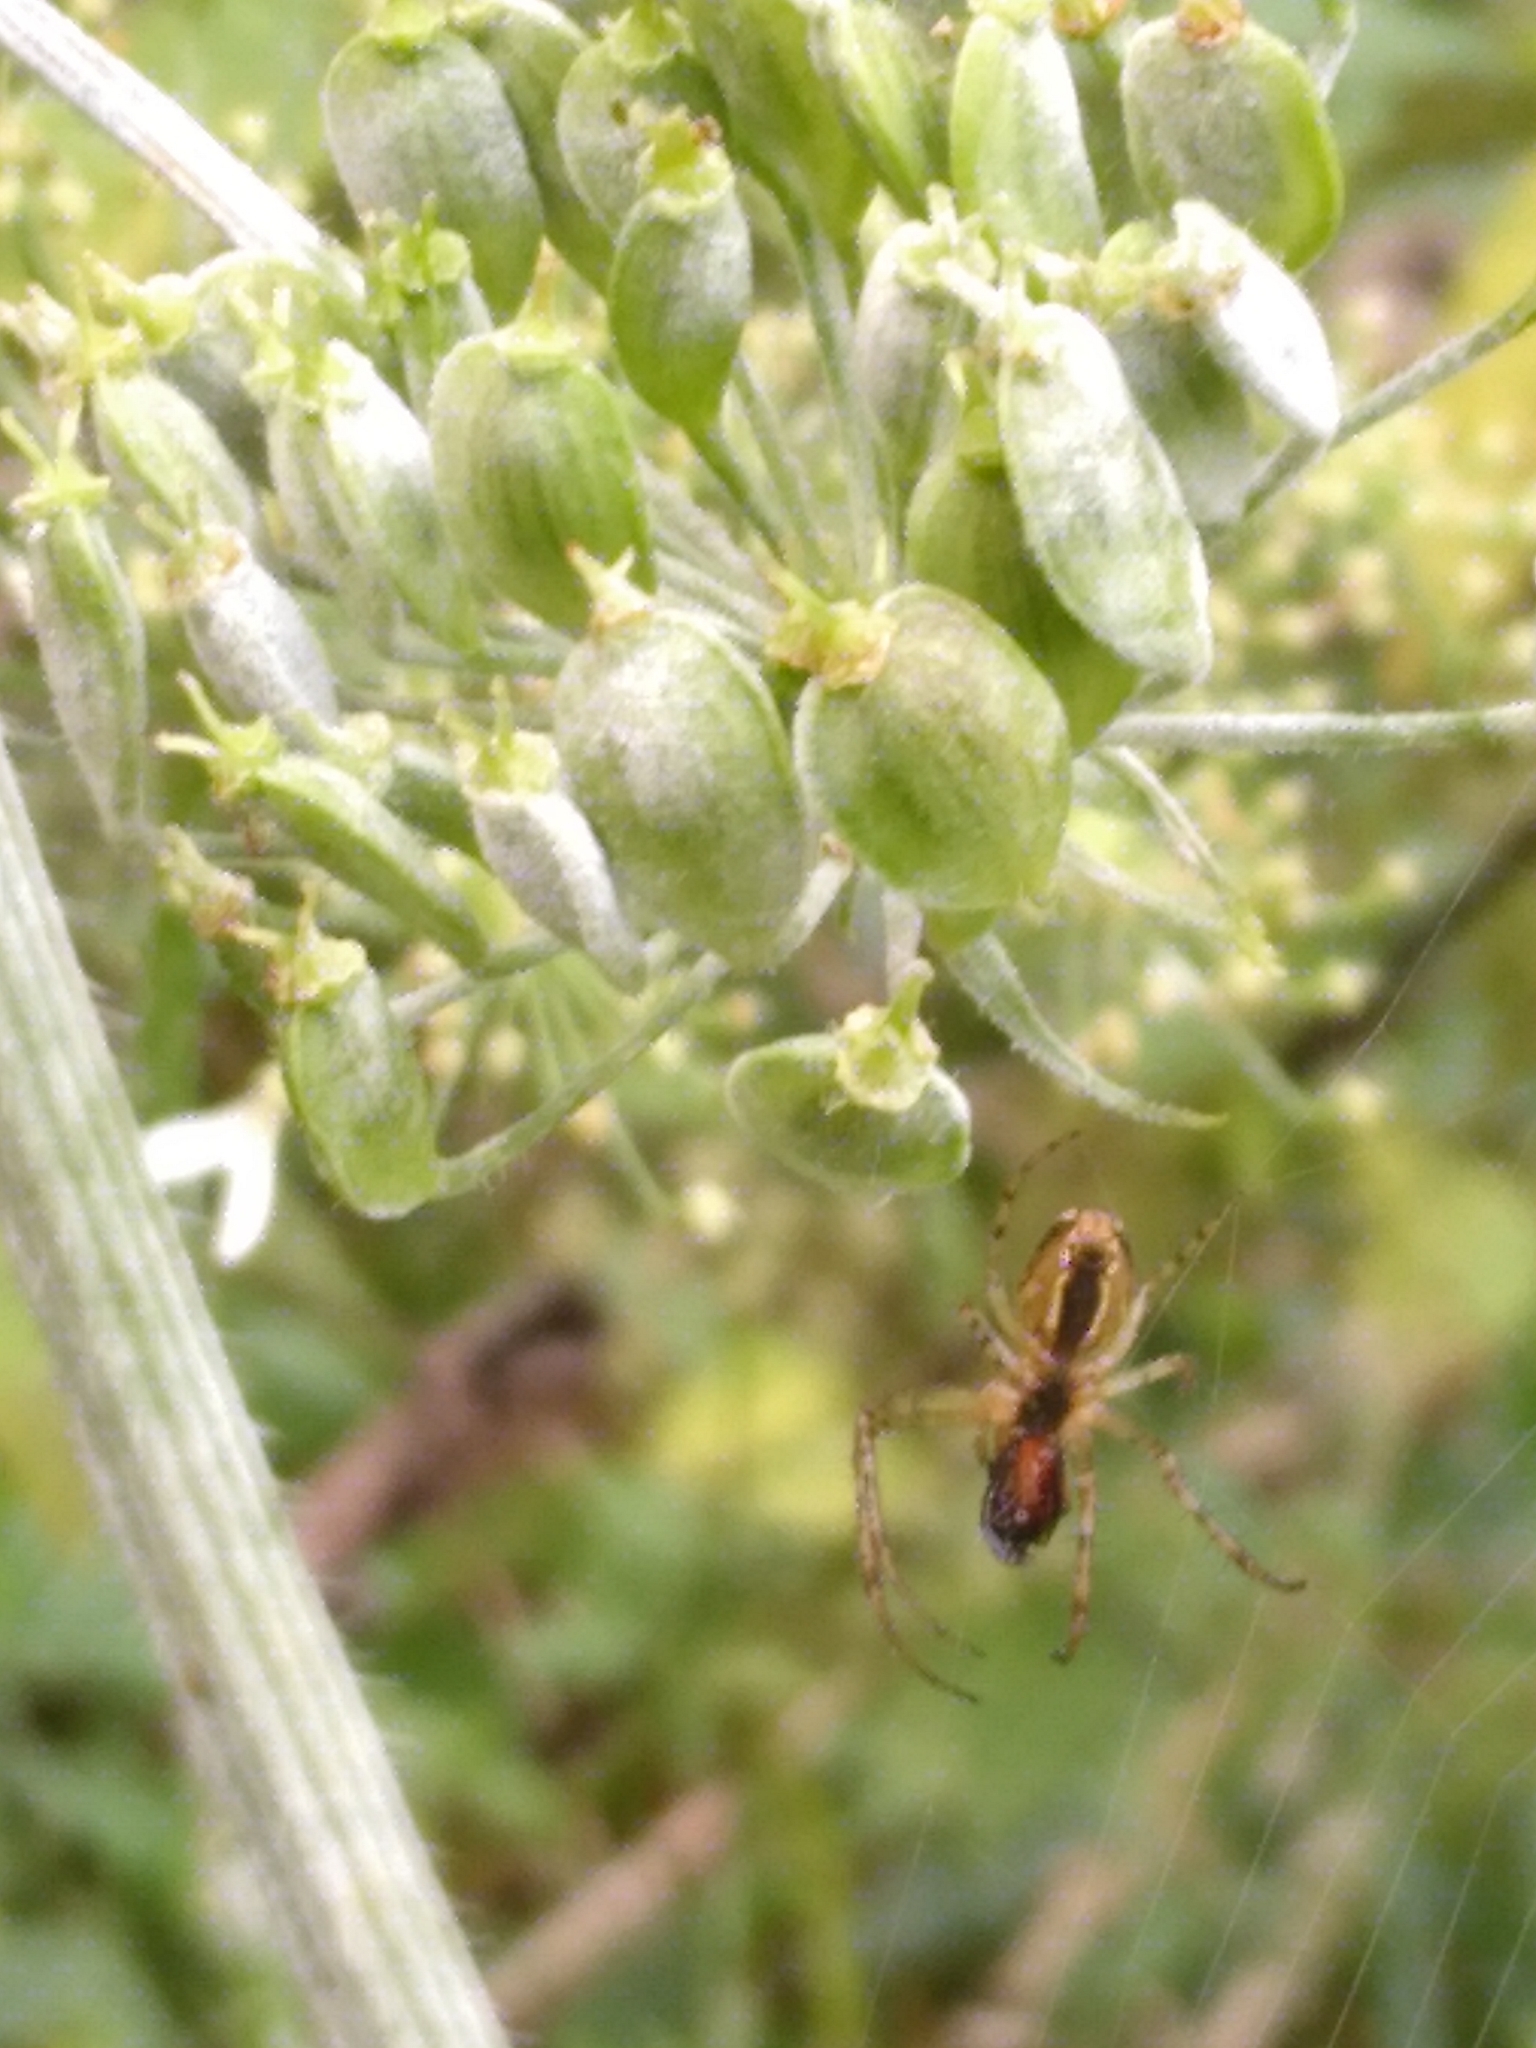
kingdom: Animalia
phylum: Arthropoda
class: Arachnida
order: Araneae
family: Tetragnathidae
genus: Metellina
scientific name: Metellina
